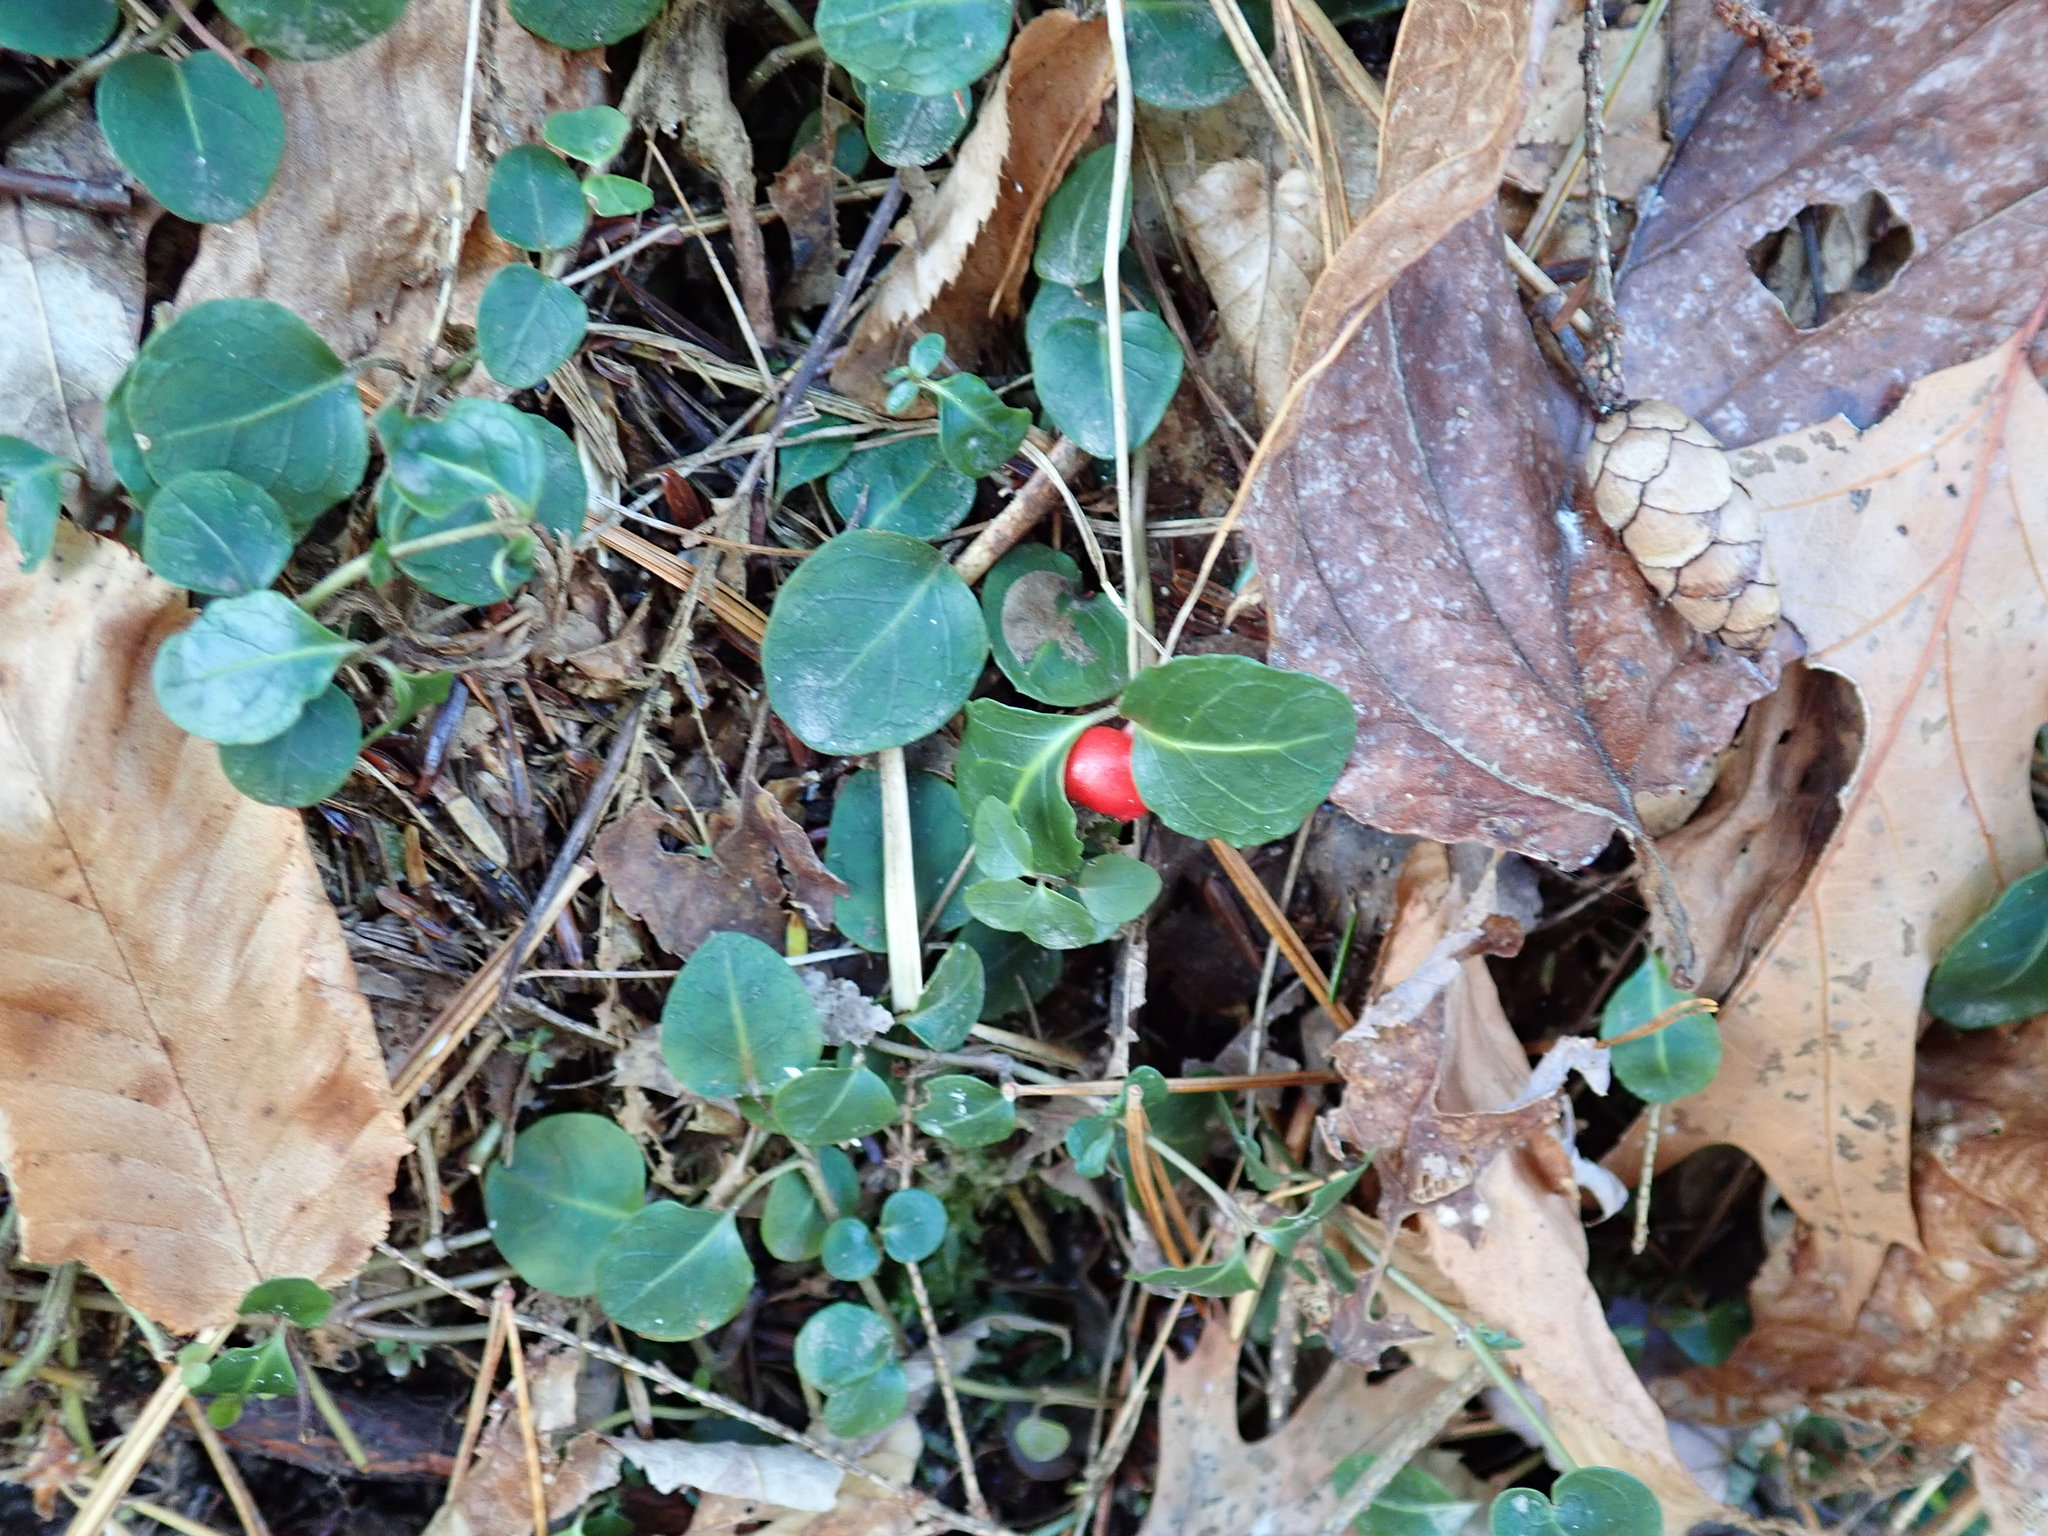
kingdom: Plantae
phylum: Tracheophyta
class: Magnoliopsida
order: Gentianales
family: Rubiaceae
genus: Mitchella
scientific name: Mitchella repens
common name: Partridge-berry
